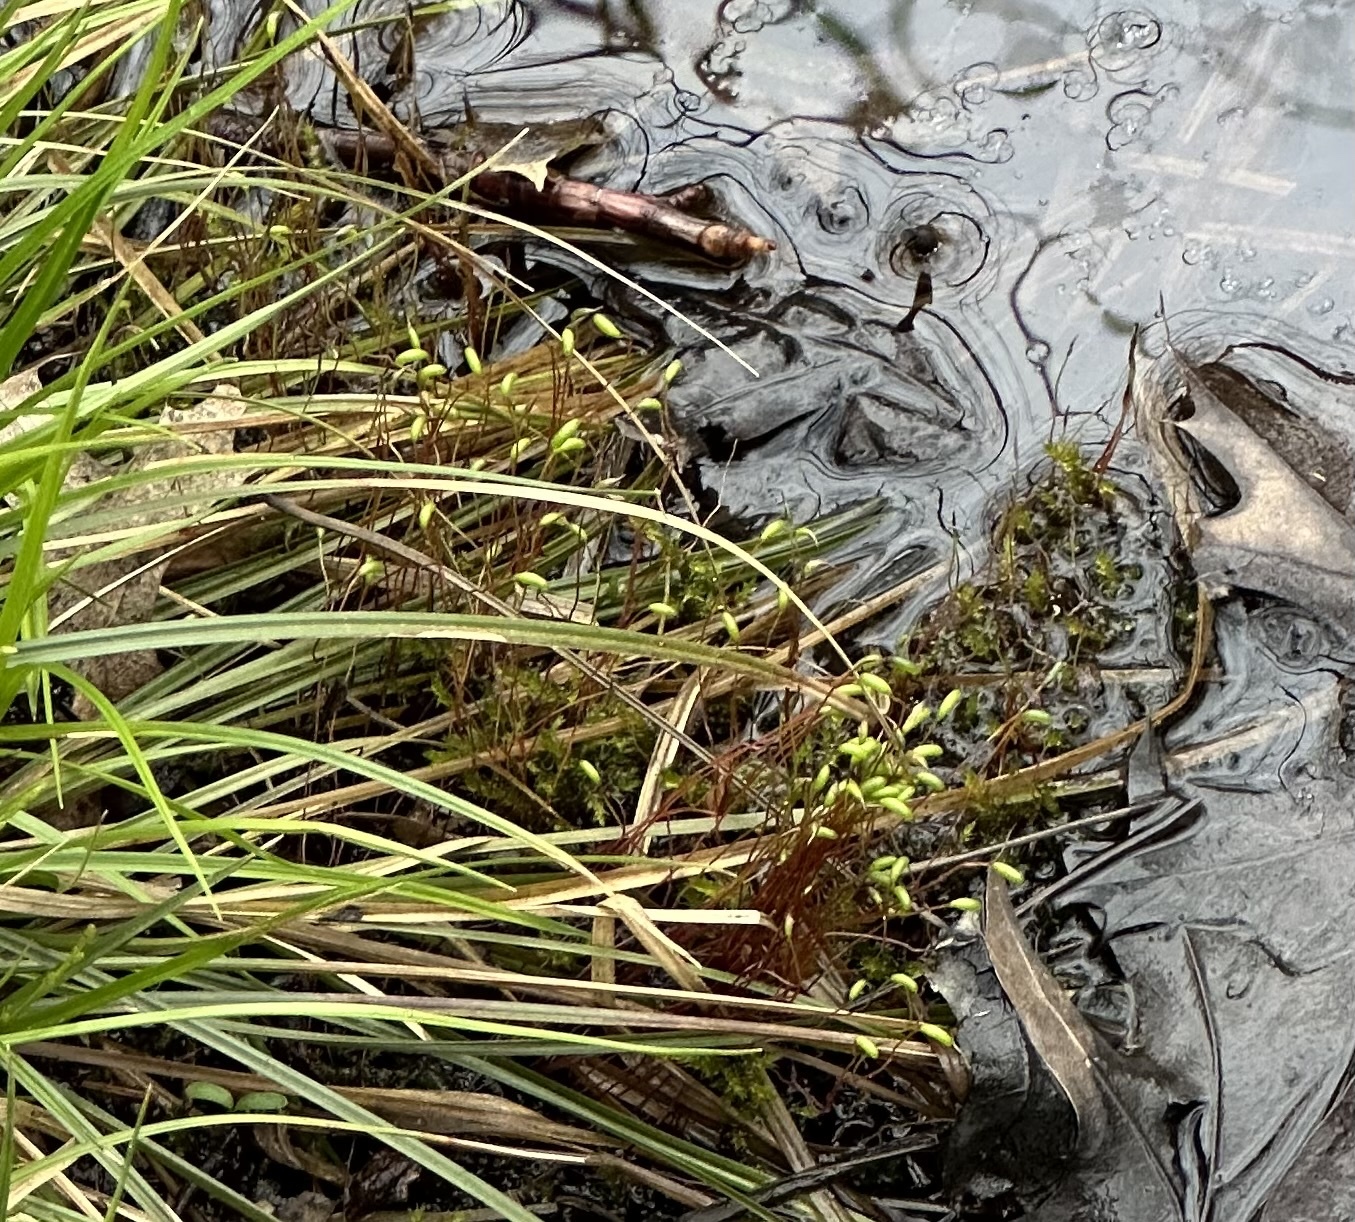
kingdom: Plantae
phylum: Bryophyta
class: Bryopsida
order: Bryales
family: Mniaceae
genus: Pohlia
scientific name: Pohlia nutans
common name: Nodding thread-moss
